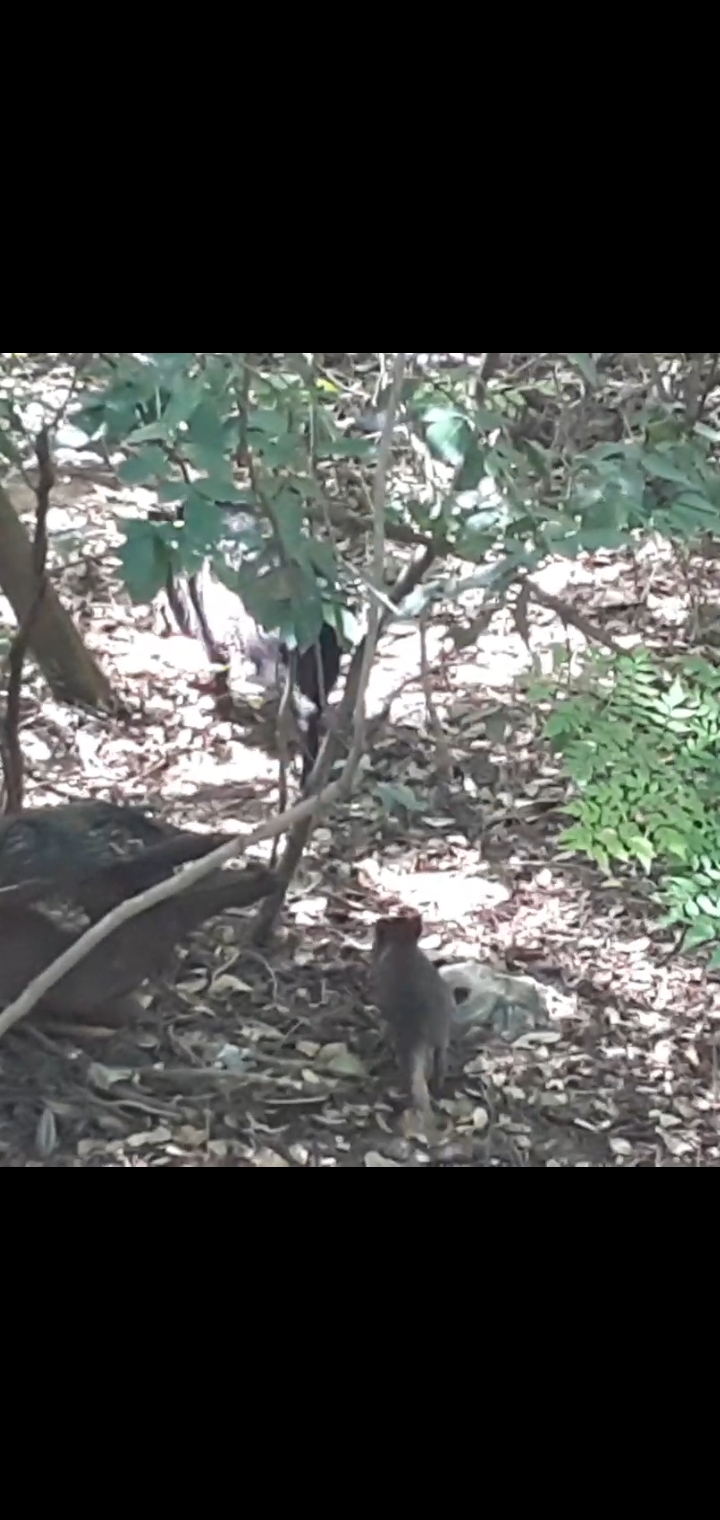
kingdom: Animalia
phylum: Chordata
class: Mammalia
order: Artiodactyla
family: Tayassuidae
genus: Pecari
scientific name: Pecari tajacu
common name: Collared peccary
